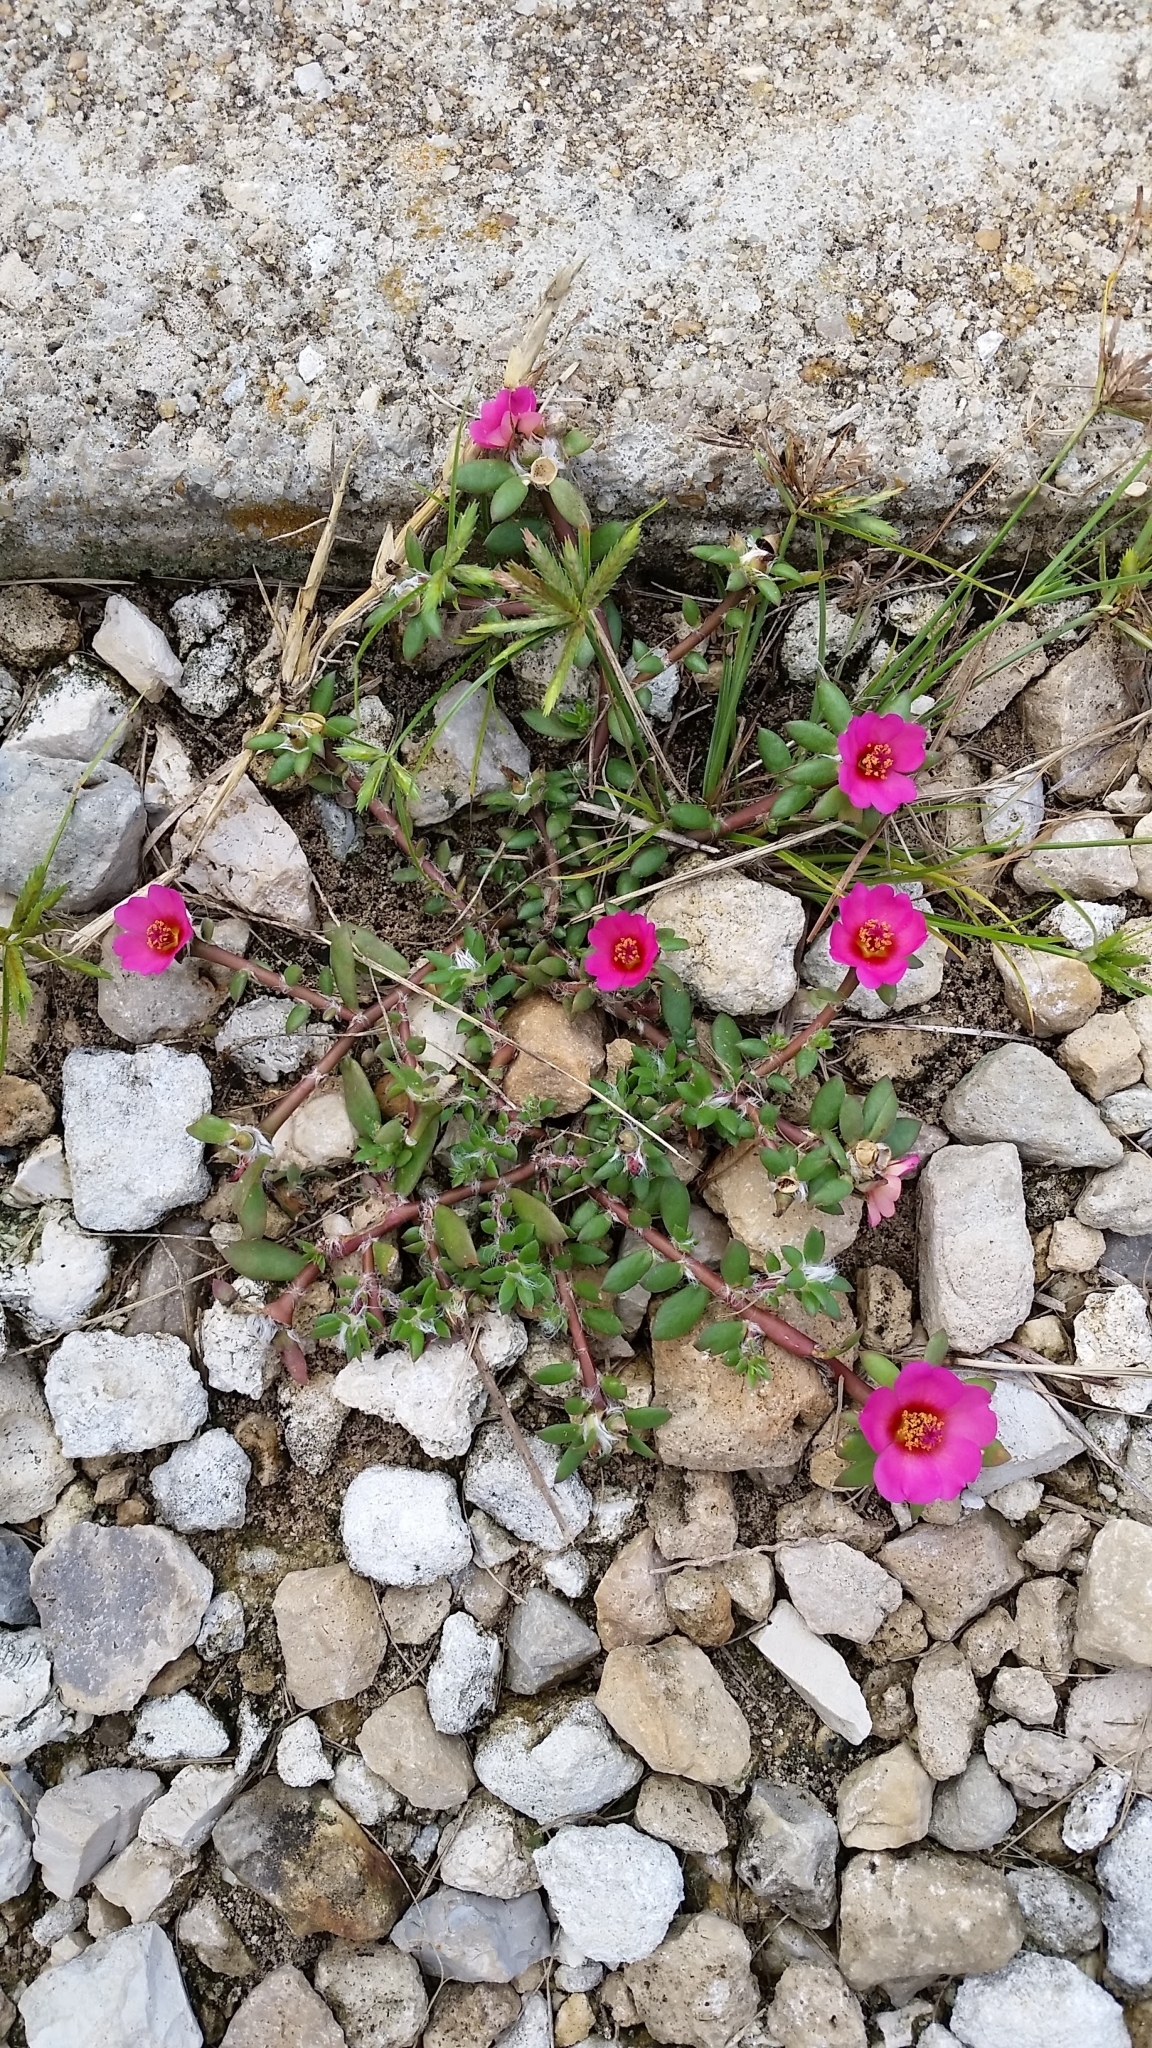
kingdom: Plantae
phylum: Tracheophyta
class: Magnoliopsida
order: Caryophyllales
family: Portulacaceae
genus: Portulaca
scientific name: Portulaca amilis
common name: Paraguayan purslane
